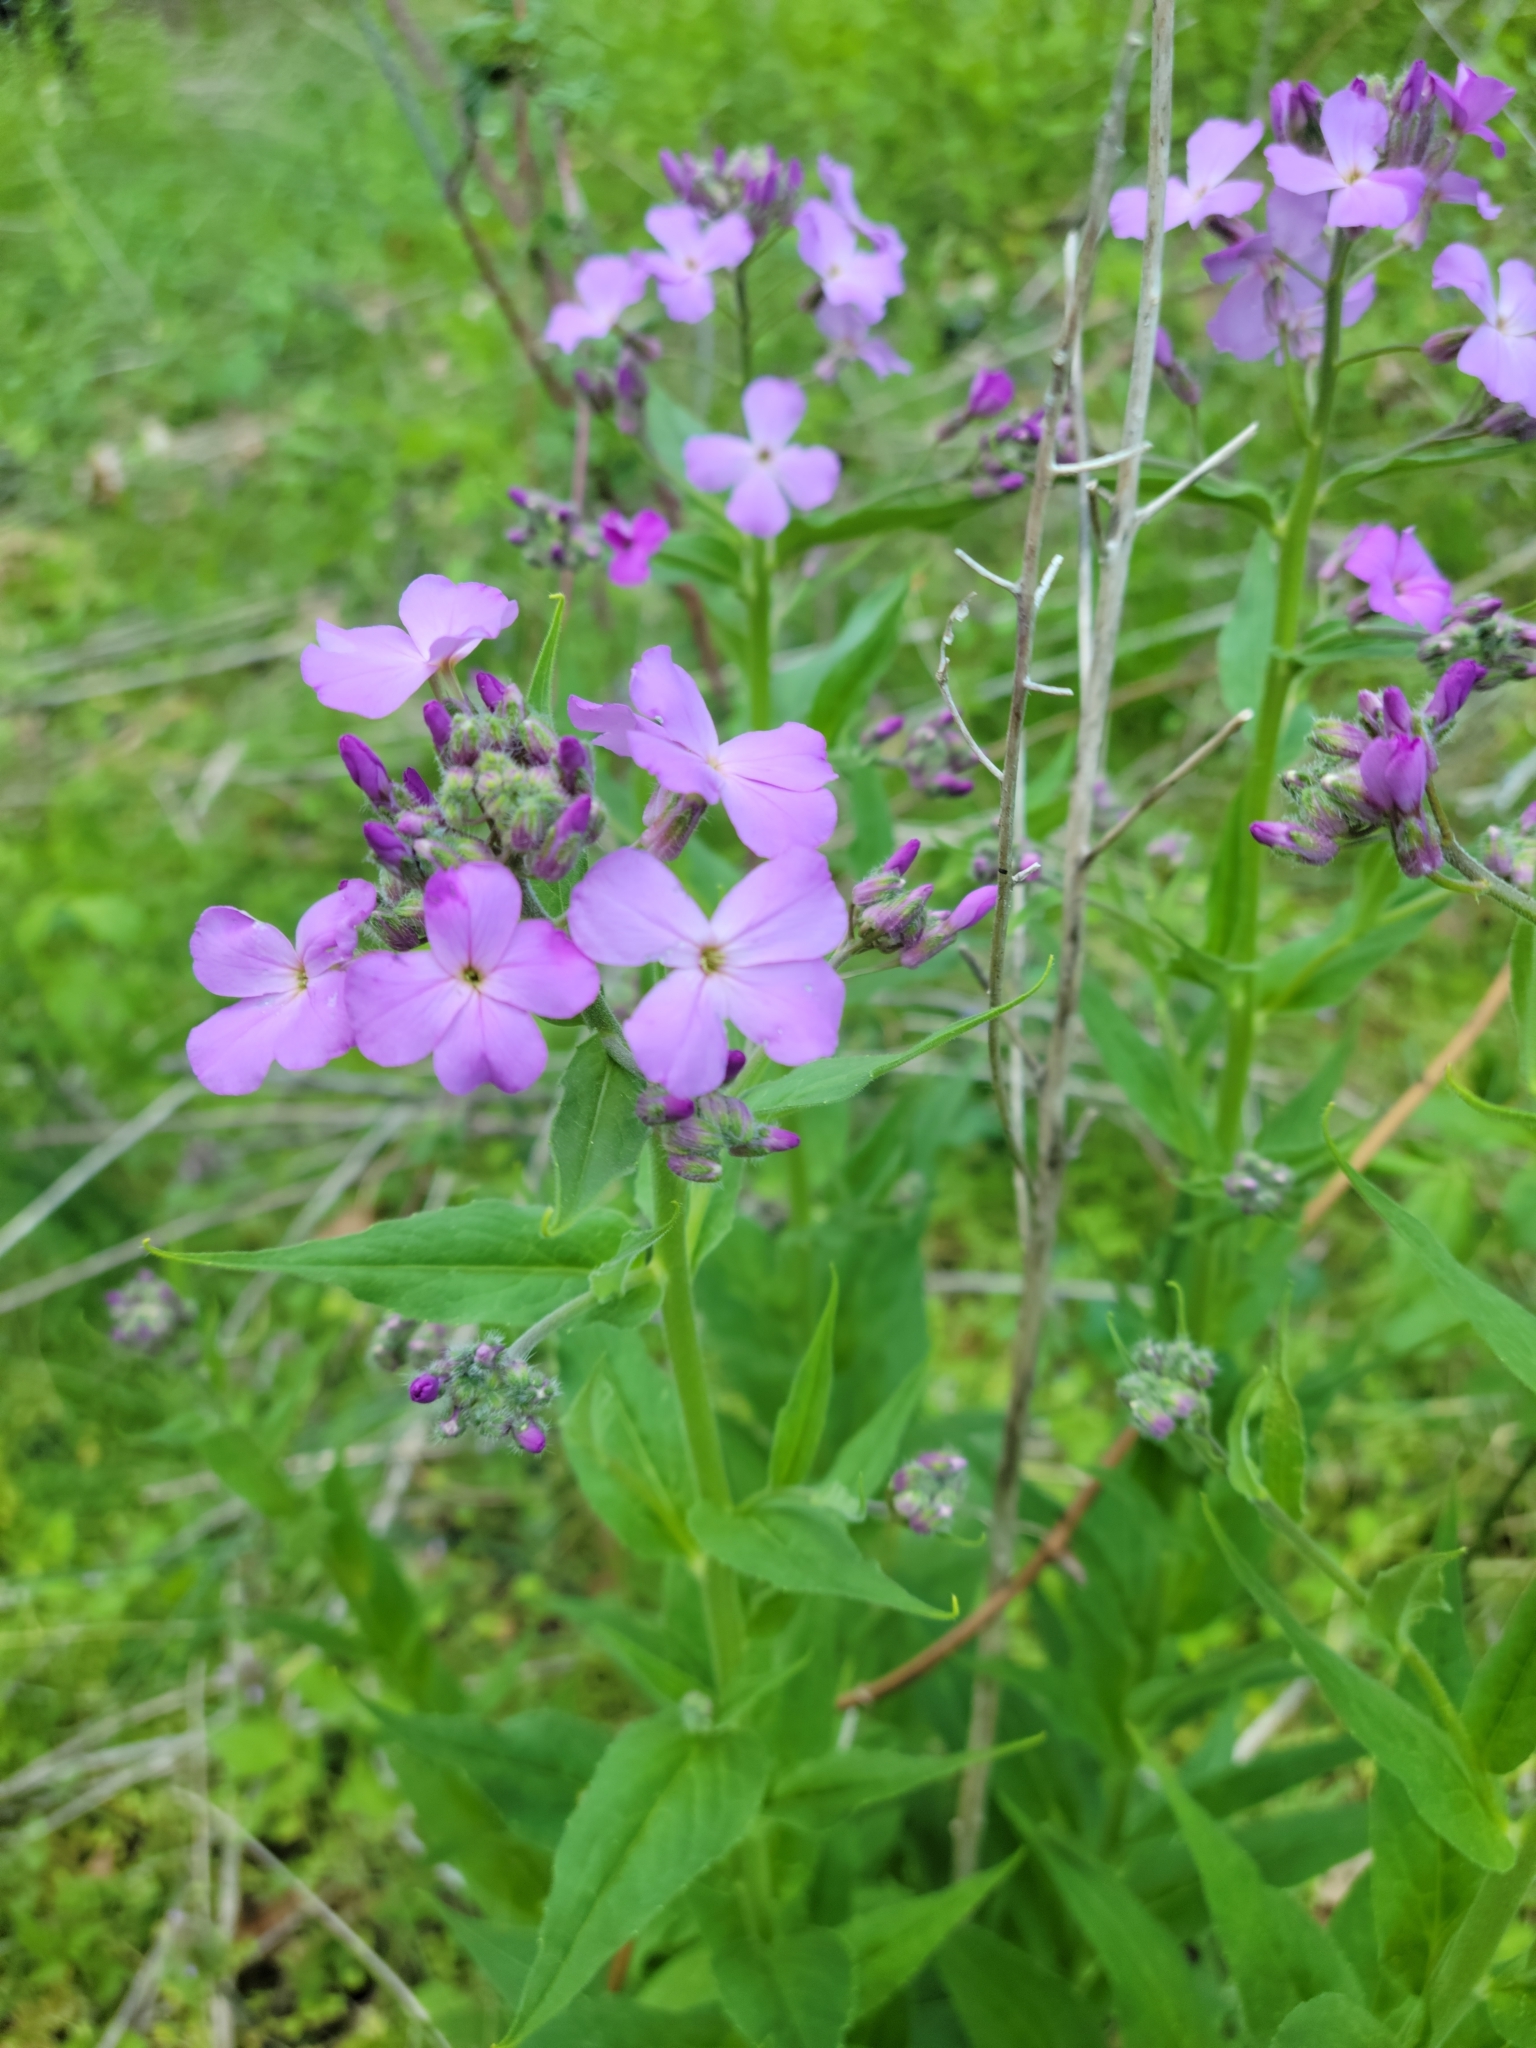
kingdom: Plantae
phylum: Tracheophyta
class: Magnoliopsida
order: Brassicales
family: Brassicaceae
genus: Hesperis
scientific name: Hesperis matronalis
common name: Dame's-violet
